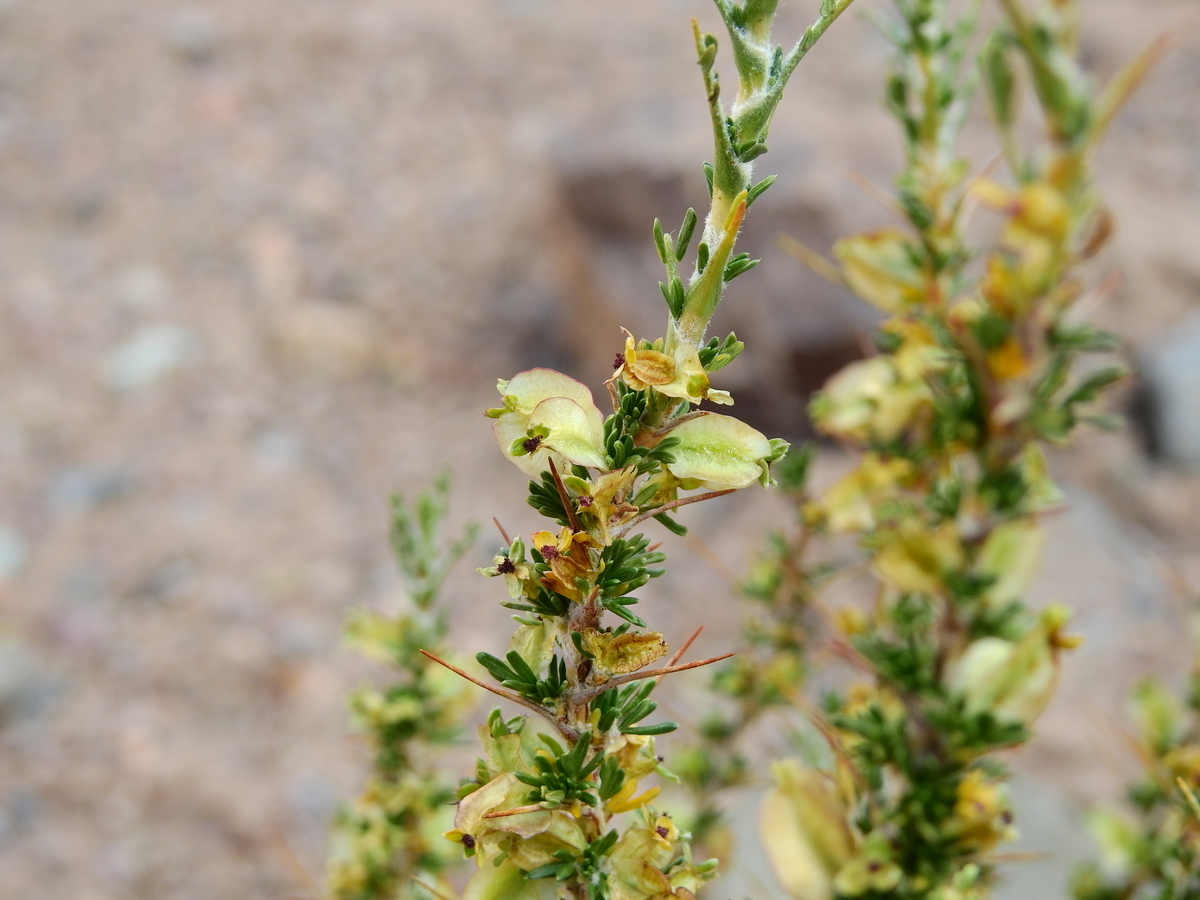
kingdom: Plantae
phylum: Tracheophyta
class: Magnoliopsida
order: Rosales
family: Rosaceae
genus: Margyricarpus
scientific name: Margyricarpus alatus
